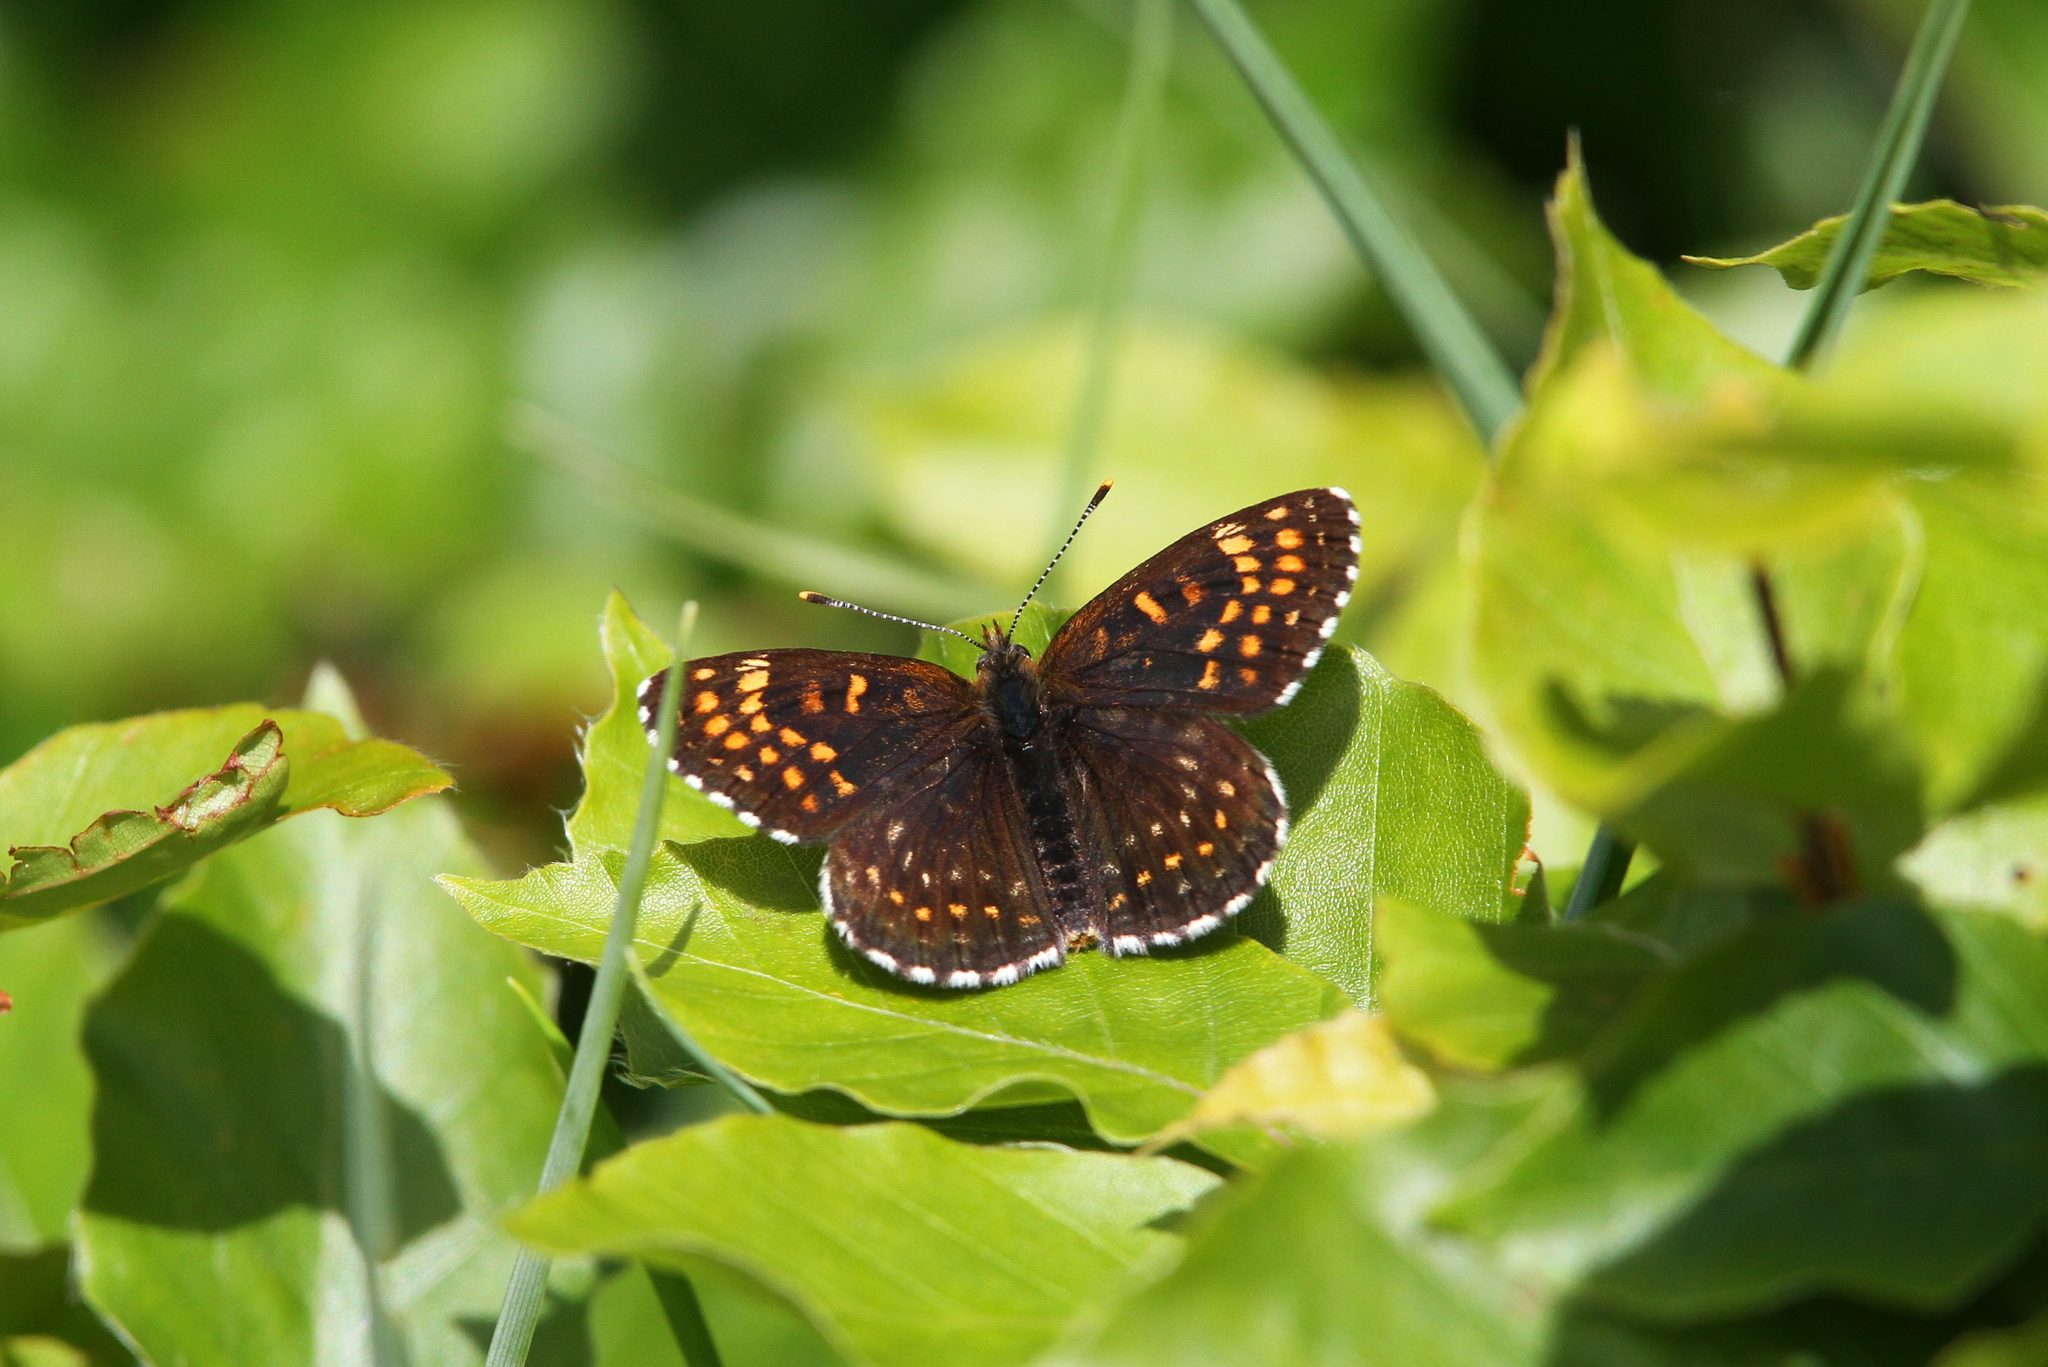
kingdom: Animalia
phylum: Arthropoda
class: Insecta
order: Lepidoptera
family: Nymphalidae
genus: Melitaea
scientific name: Melitaea diamina
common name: False heath fritillary
